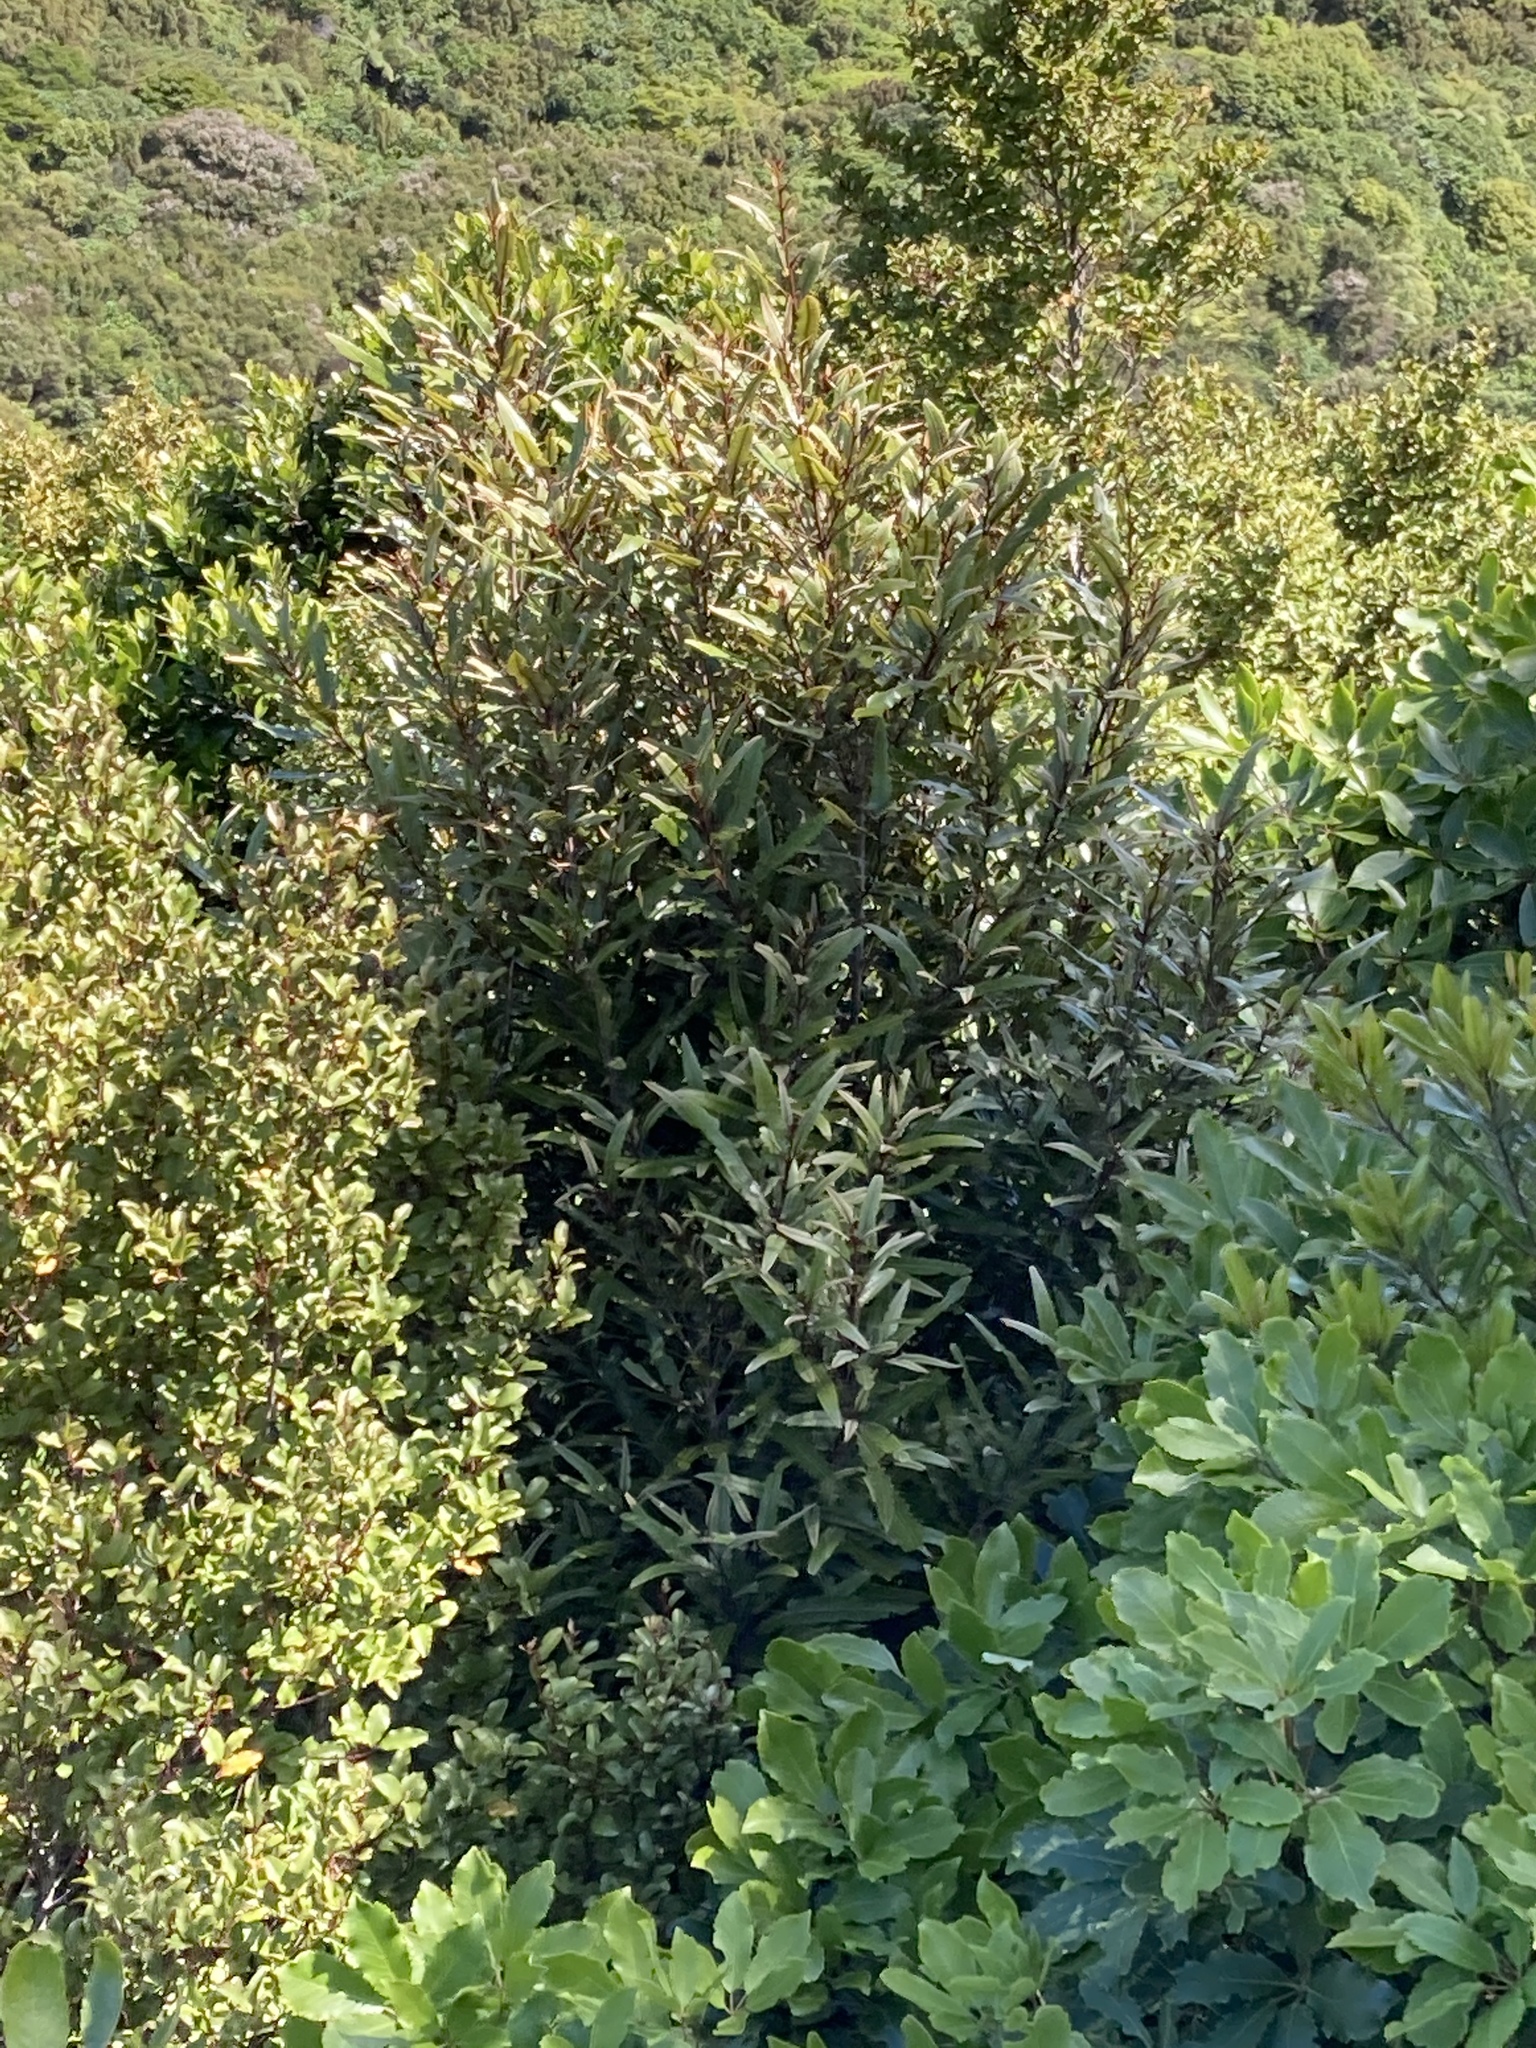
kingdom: Plantae
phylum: Tracheophyta
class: Magnoliopsida
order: Proteales
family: Proteaceae
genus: Knightia
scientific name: Knightia excelsa
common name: New zealand-honeysuckle
